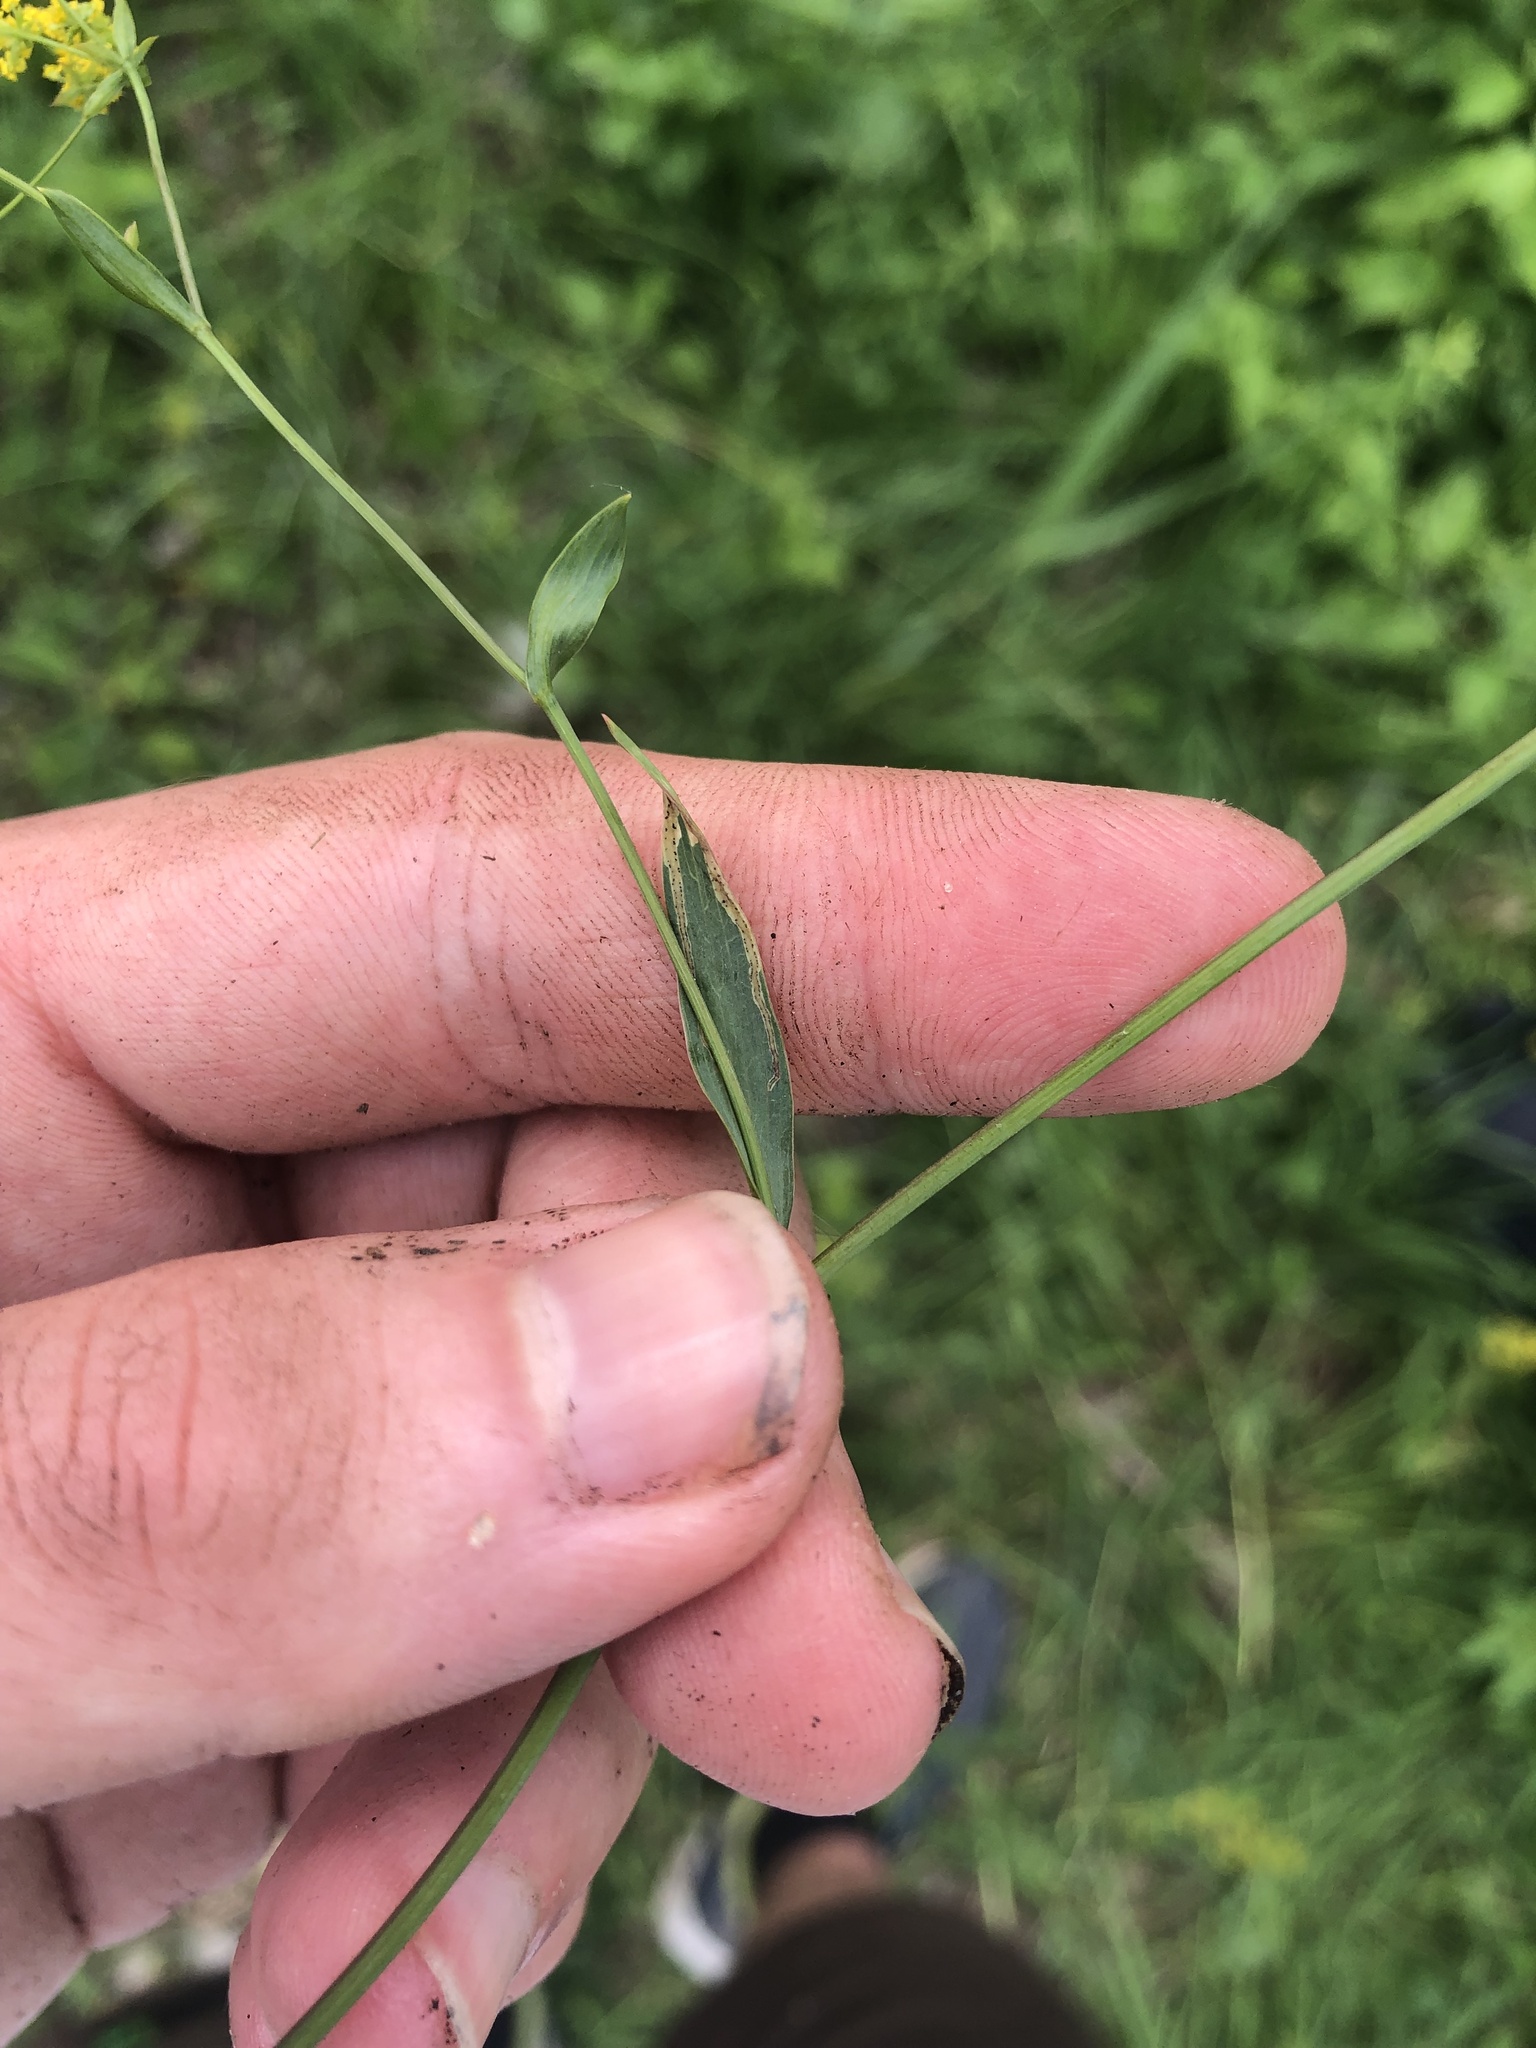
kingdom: Plantae
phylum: Tracheophyta
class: Magnoliopsida
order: Apiales
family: Apiaceae
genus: Bupleurum
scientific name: Bupleurum falcatum
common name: Sickle-leaved hare's-ear
